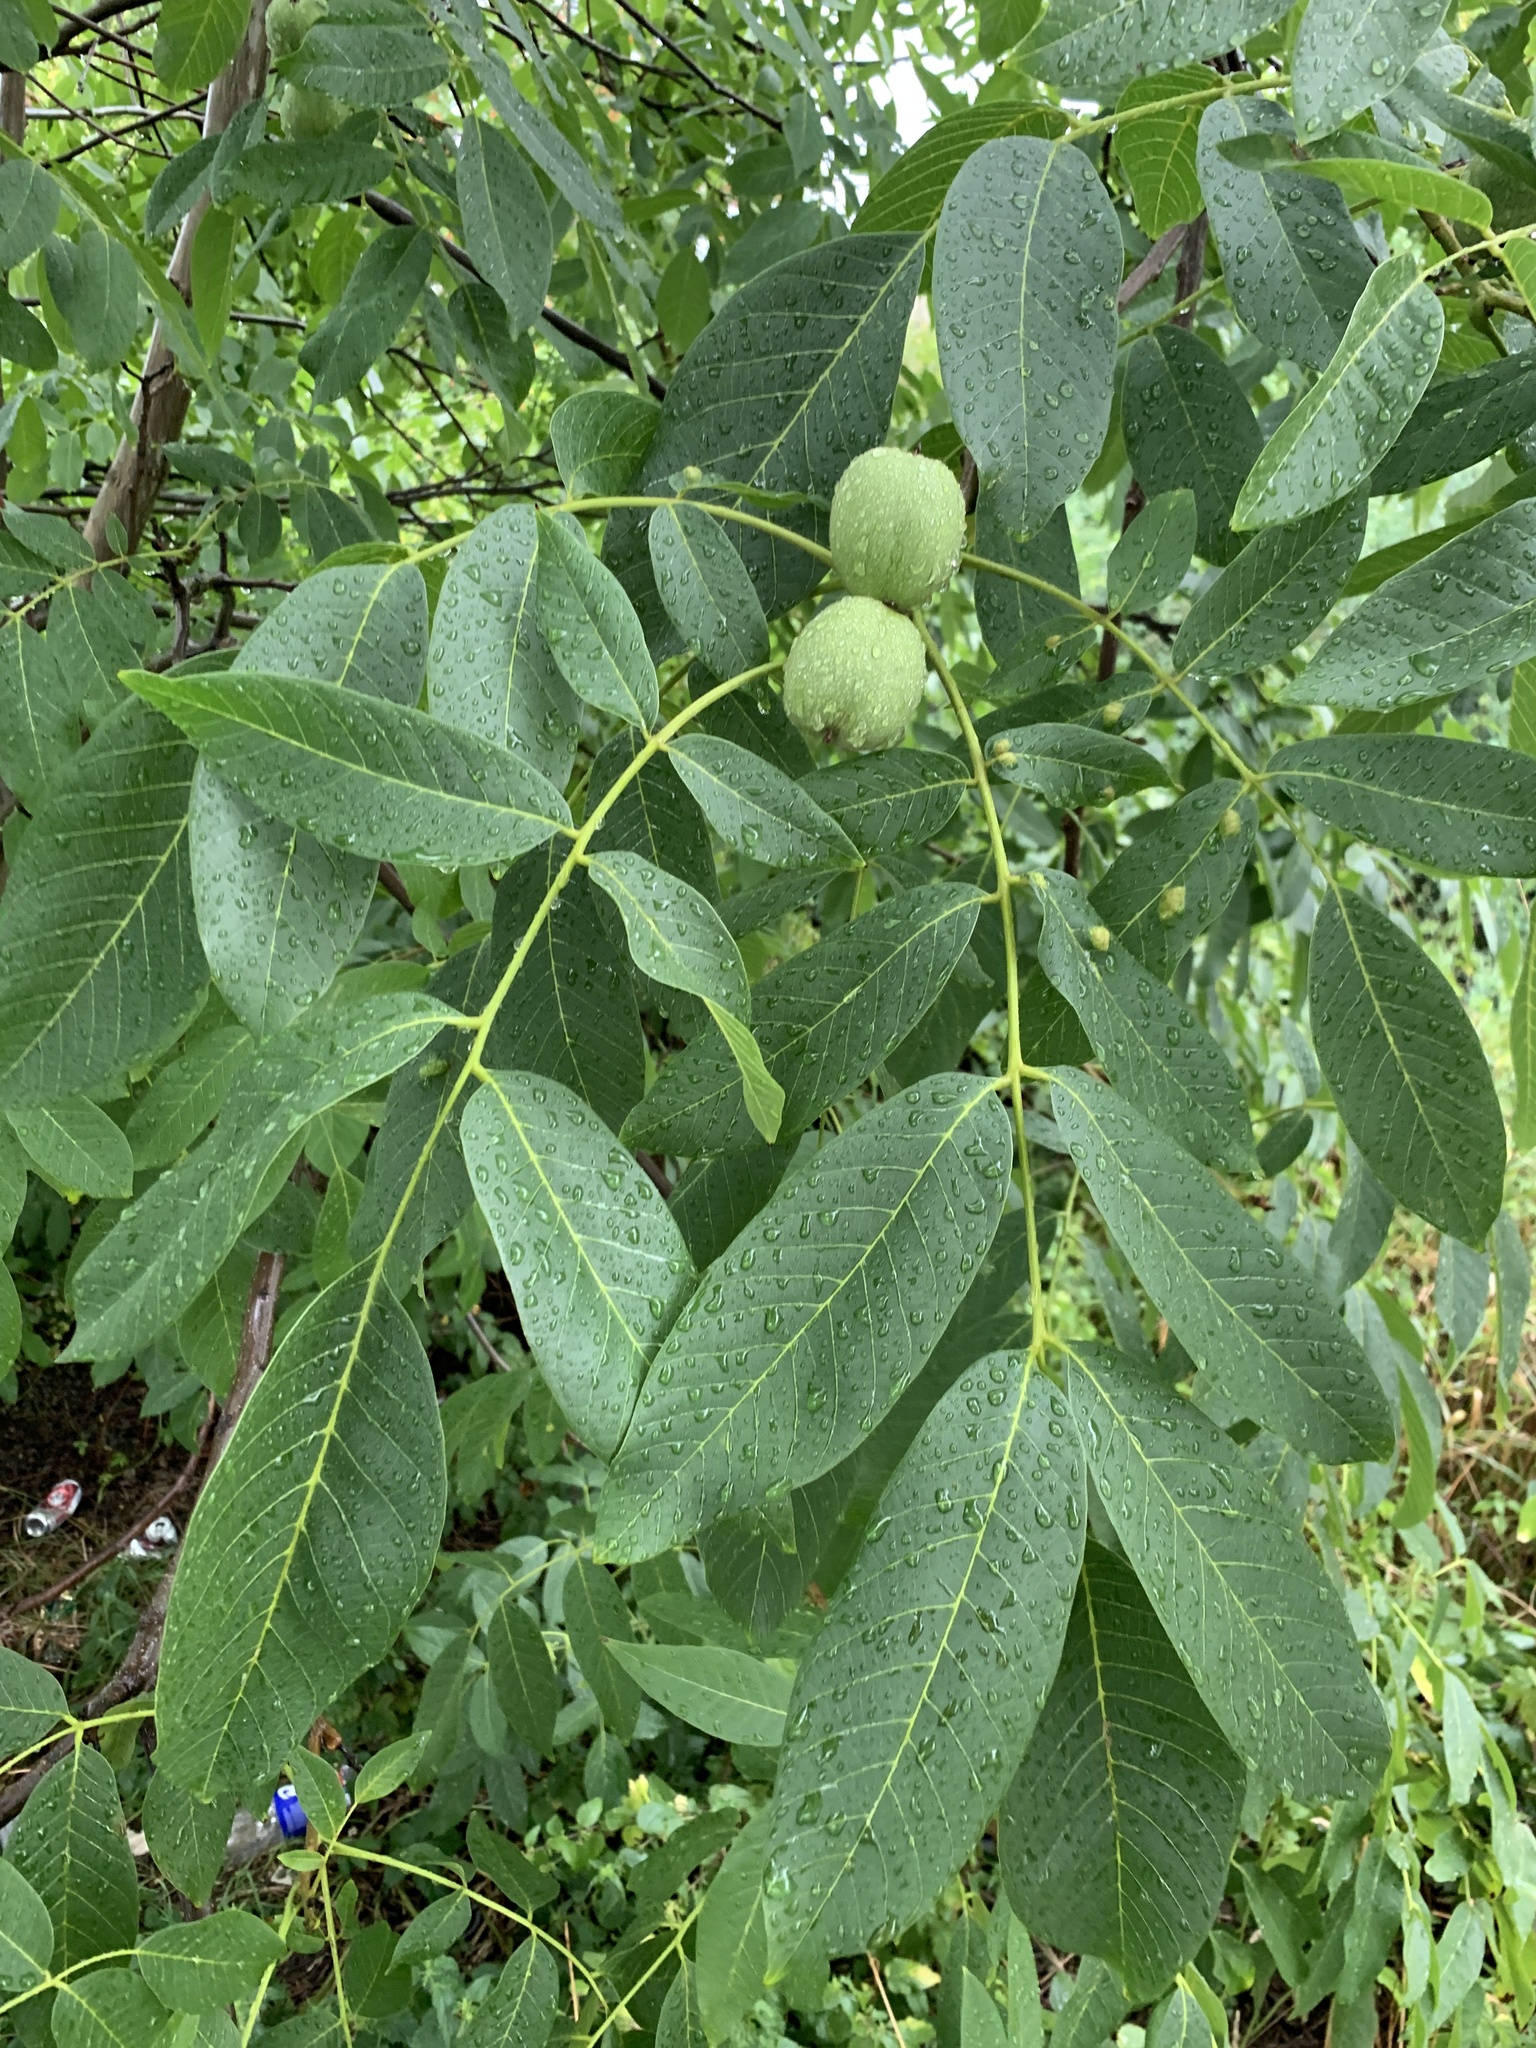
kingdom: Plantae
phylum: Tracheophyta
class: Magnoliopsida
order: Fagales
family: Juglandaceae
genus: Juglans
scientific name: Juglans regia
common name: Walnut
